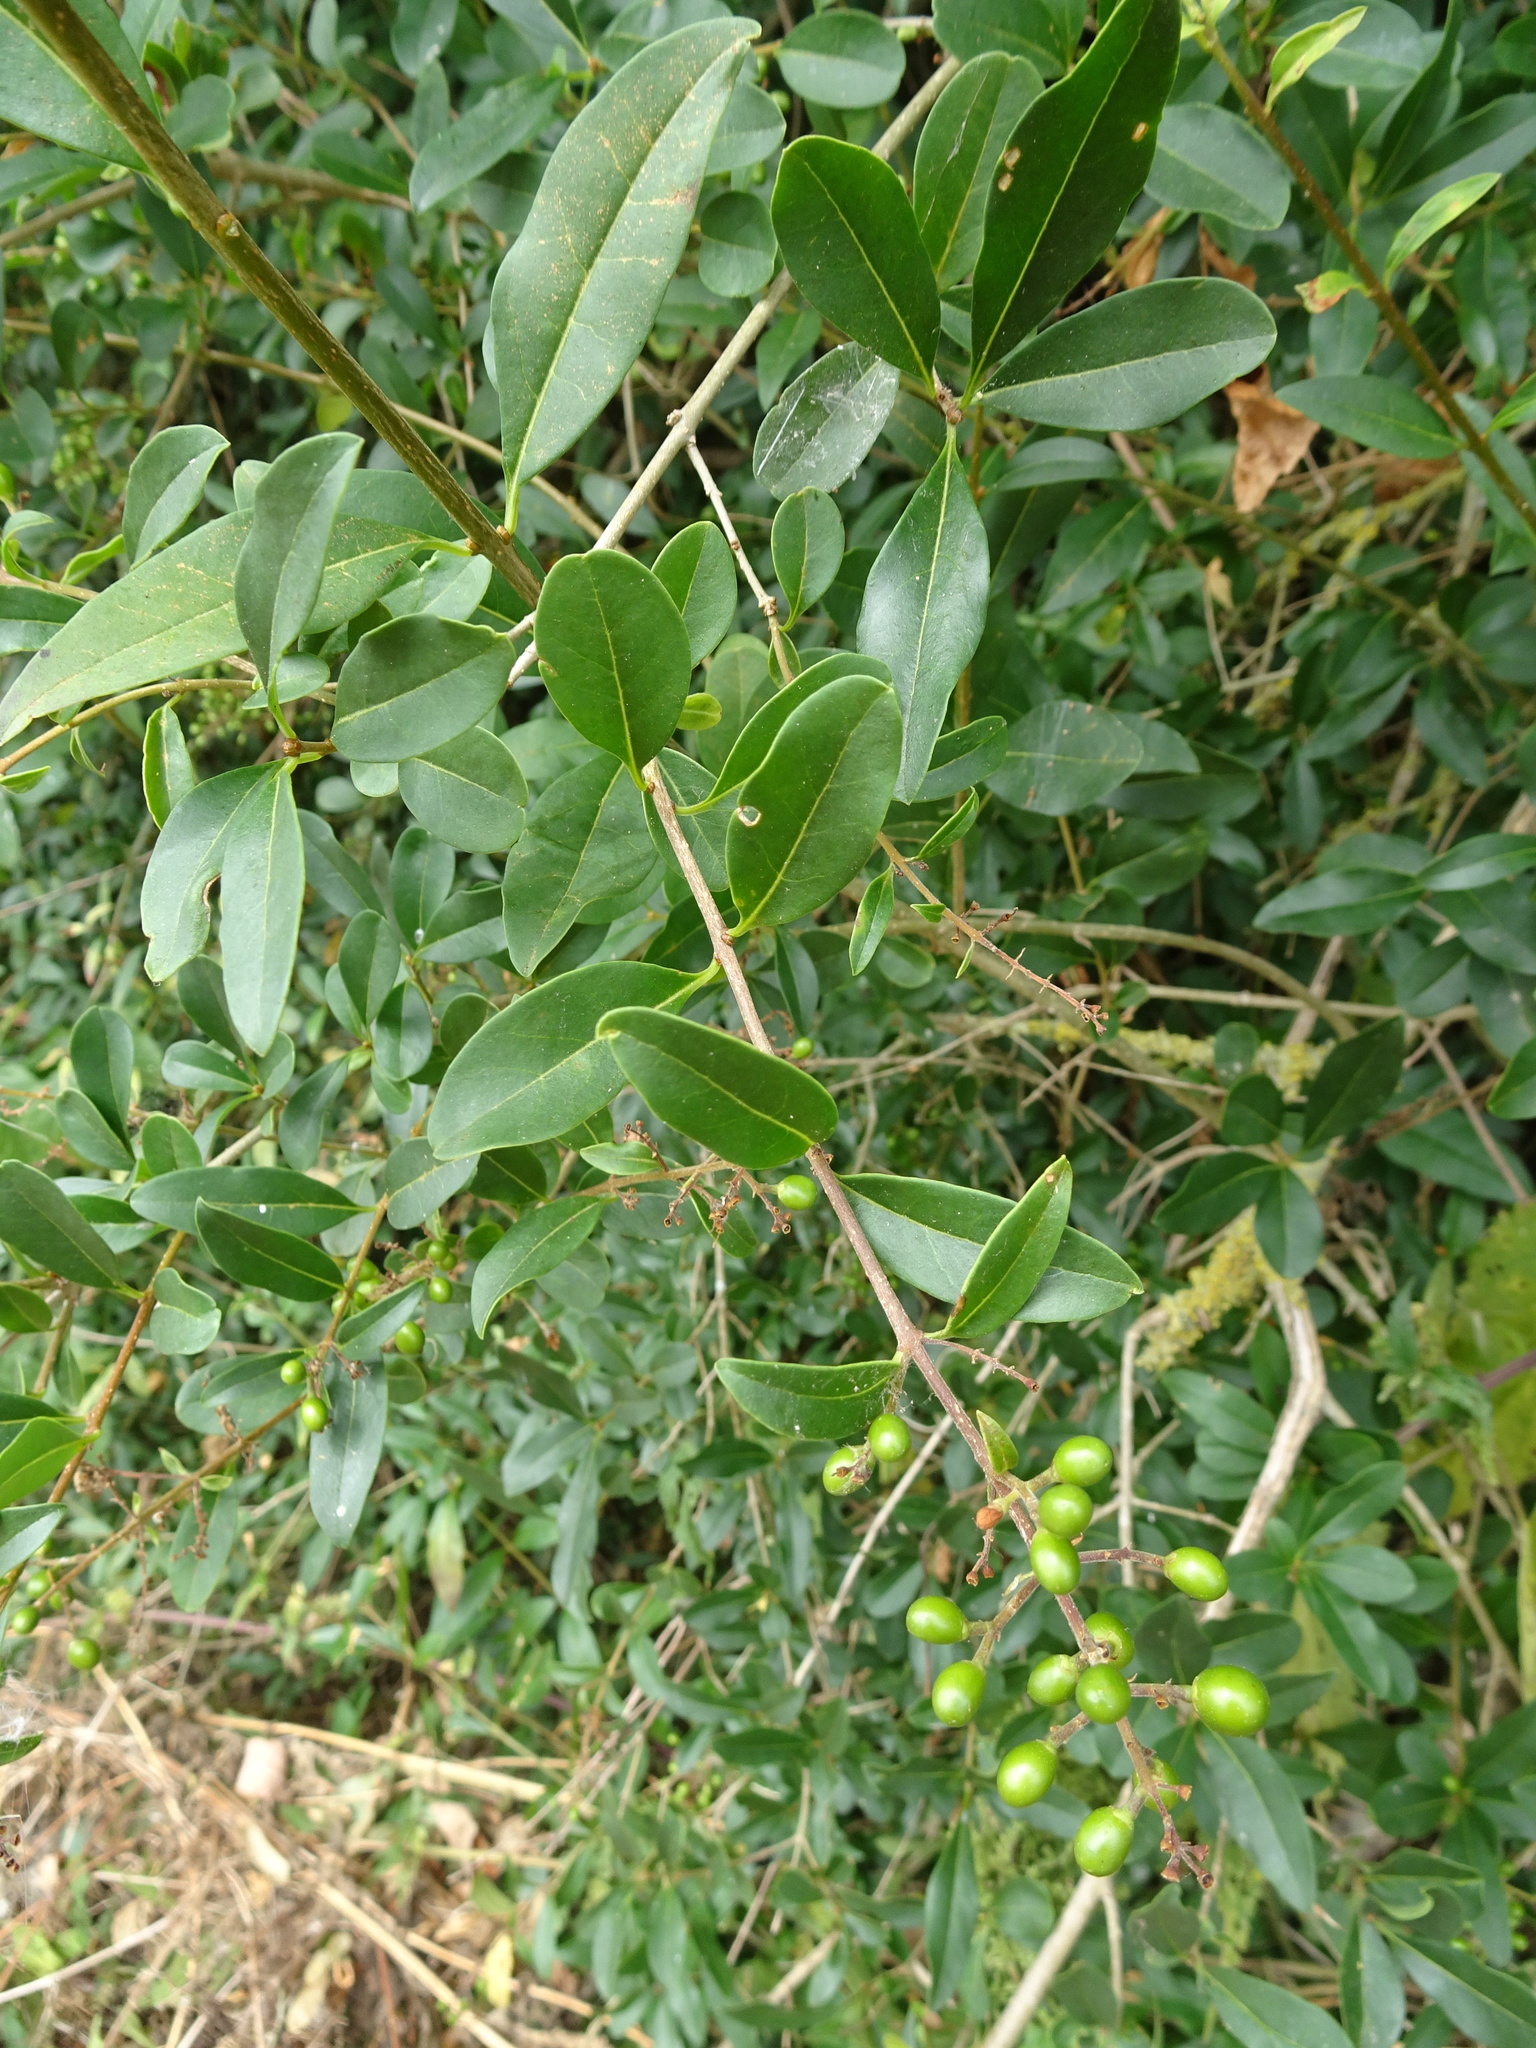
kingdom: Plantae
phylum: Tracheophyta
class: Magnoliopsida
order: Lamiales
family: Oleaceae
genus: Ligustrum
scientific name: Ligustrum vulgare
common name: Wild privet
